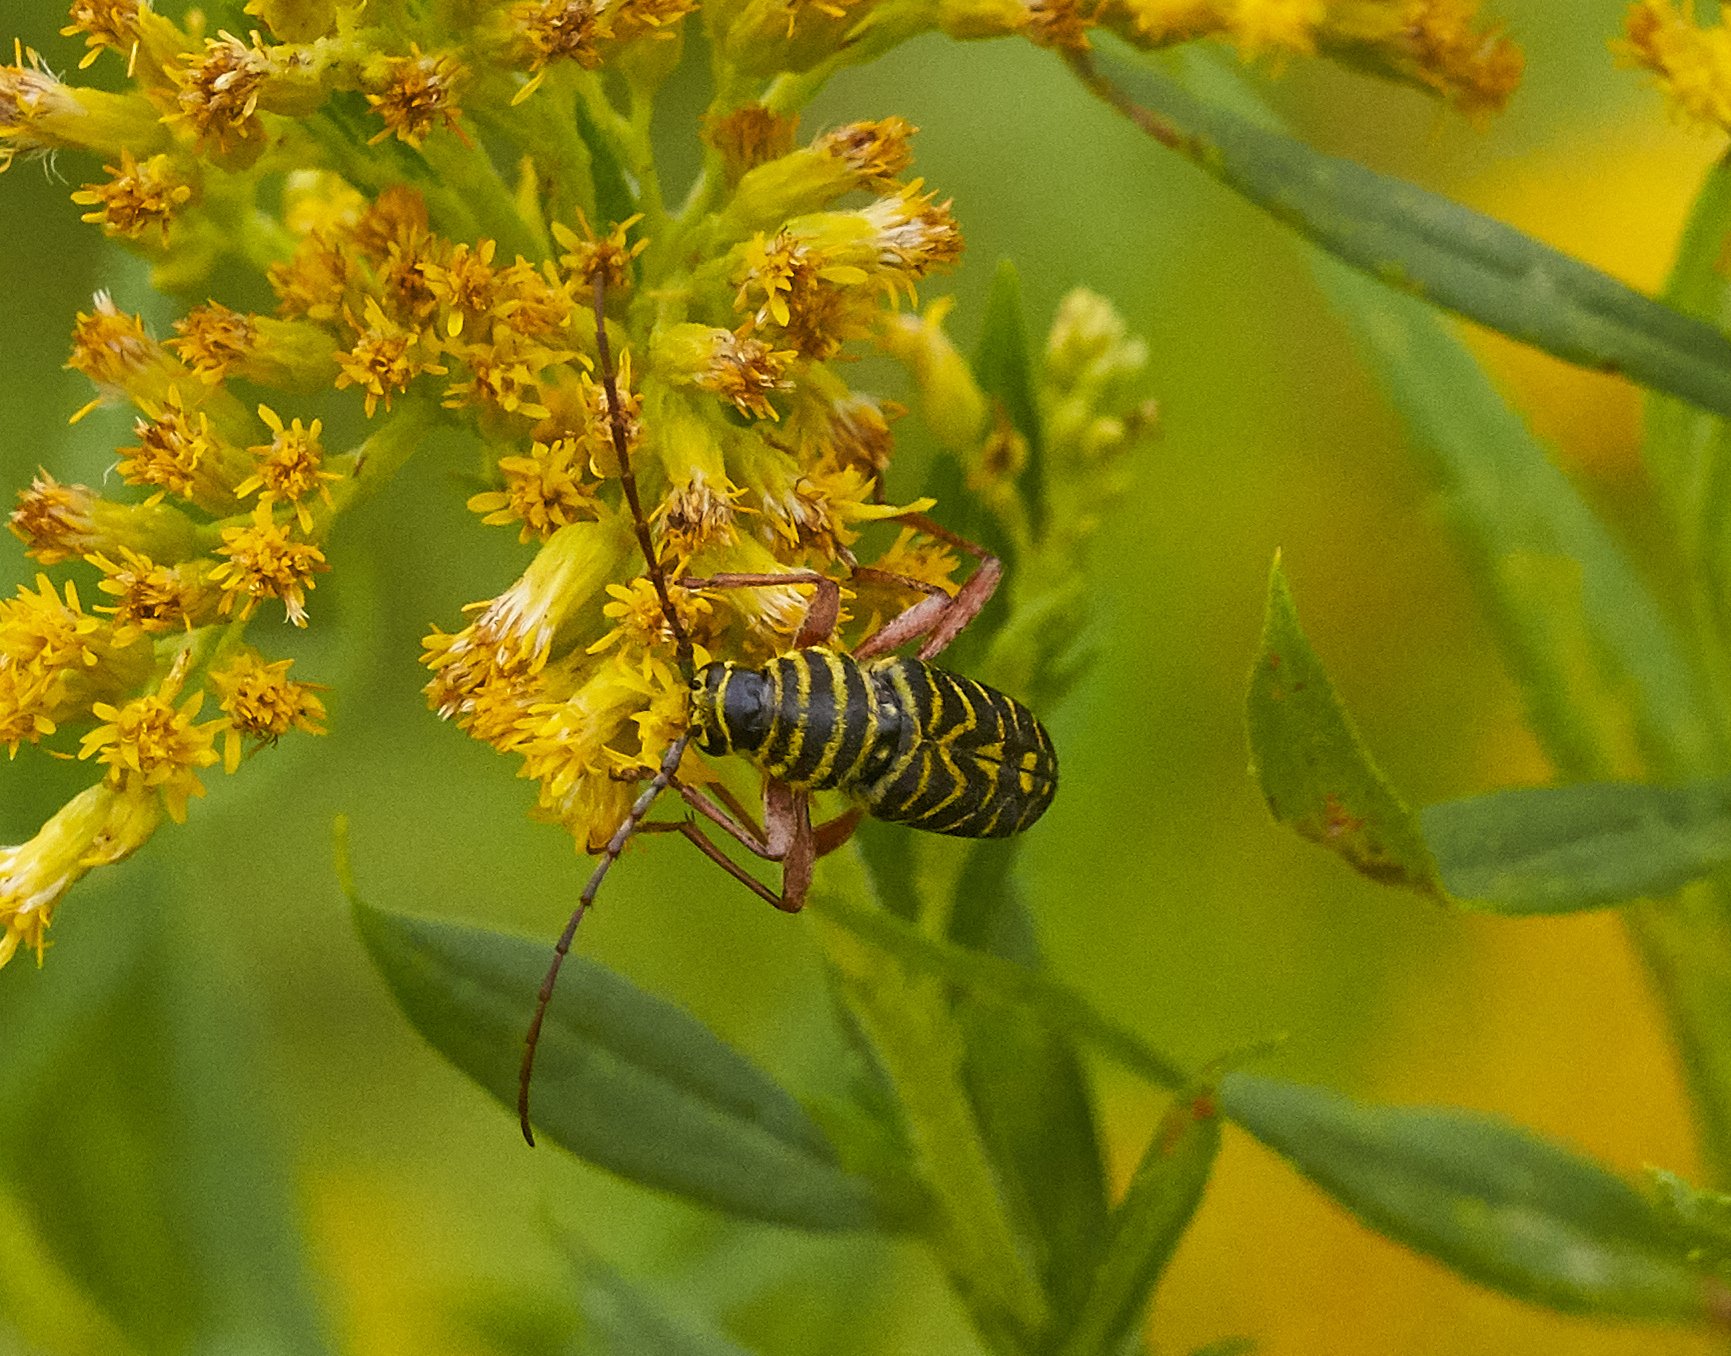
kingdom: Animalia
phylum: Arthropoda
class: Insecta
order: Coleoptera
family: Cerambycidae
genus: Megacyllene
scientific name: Megacyllene robiniae
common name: Locust borer
